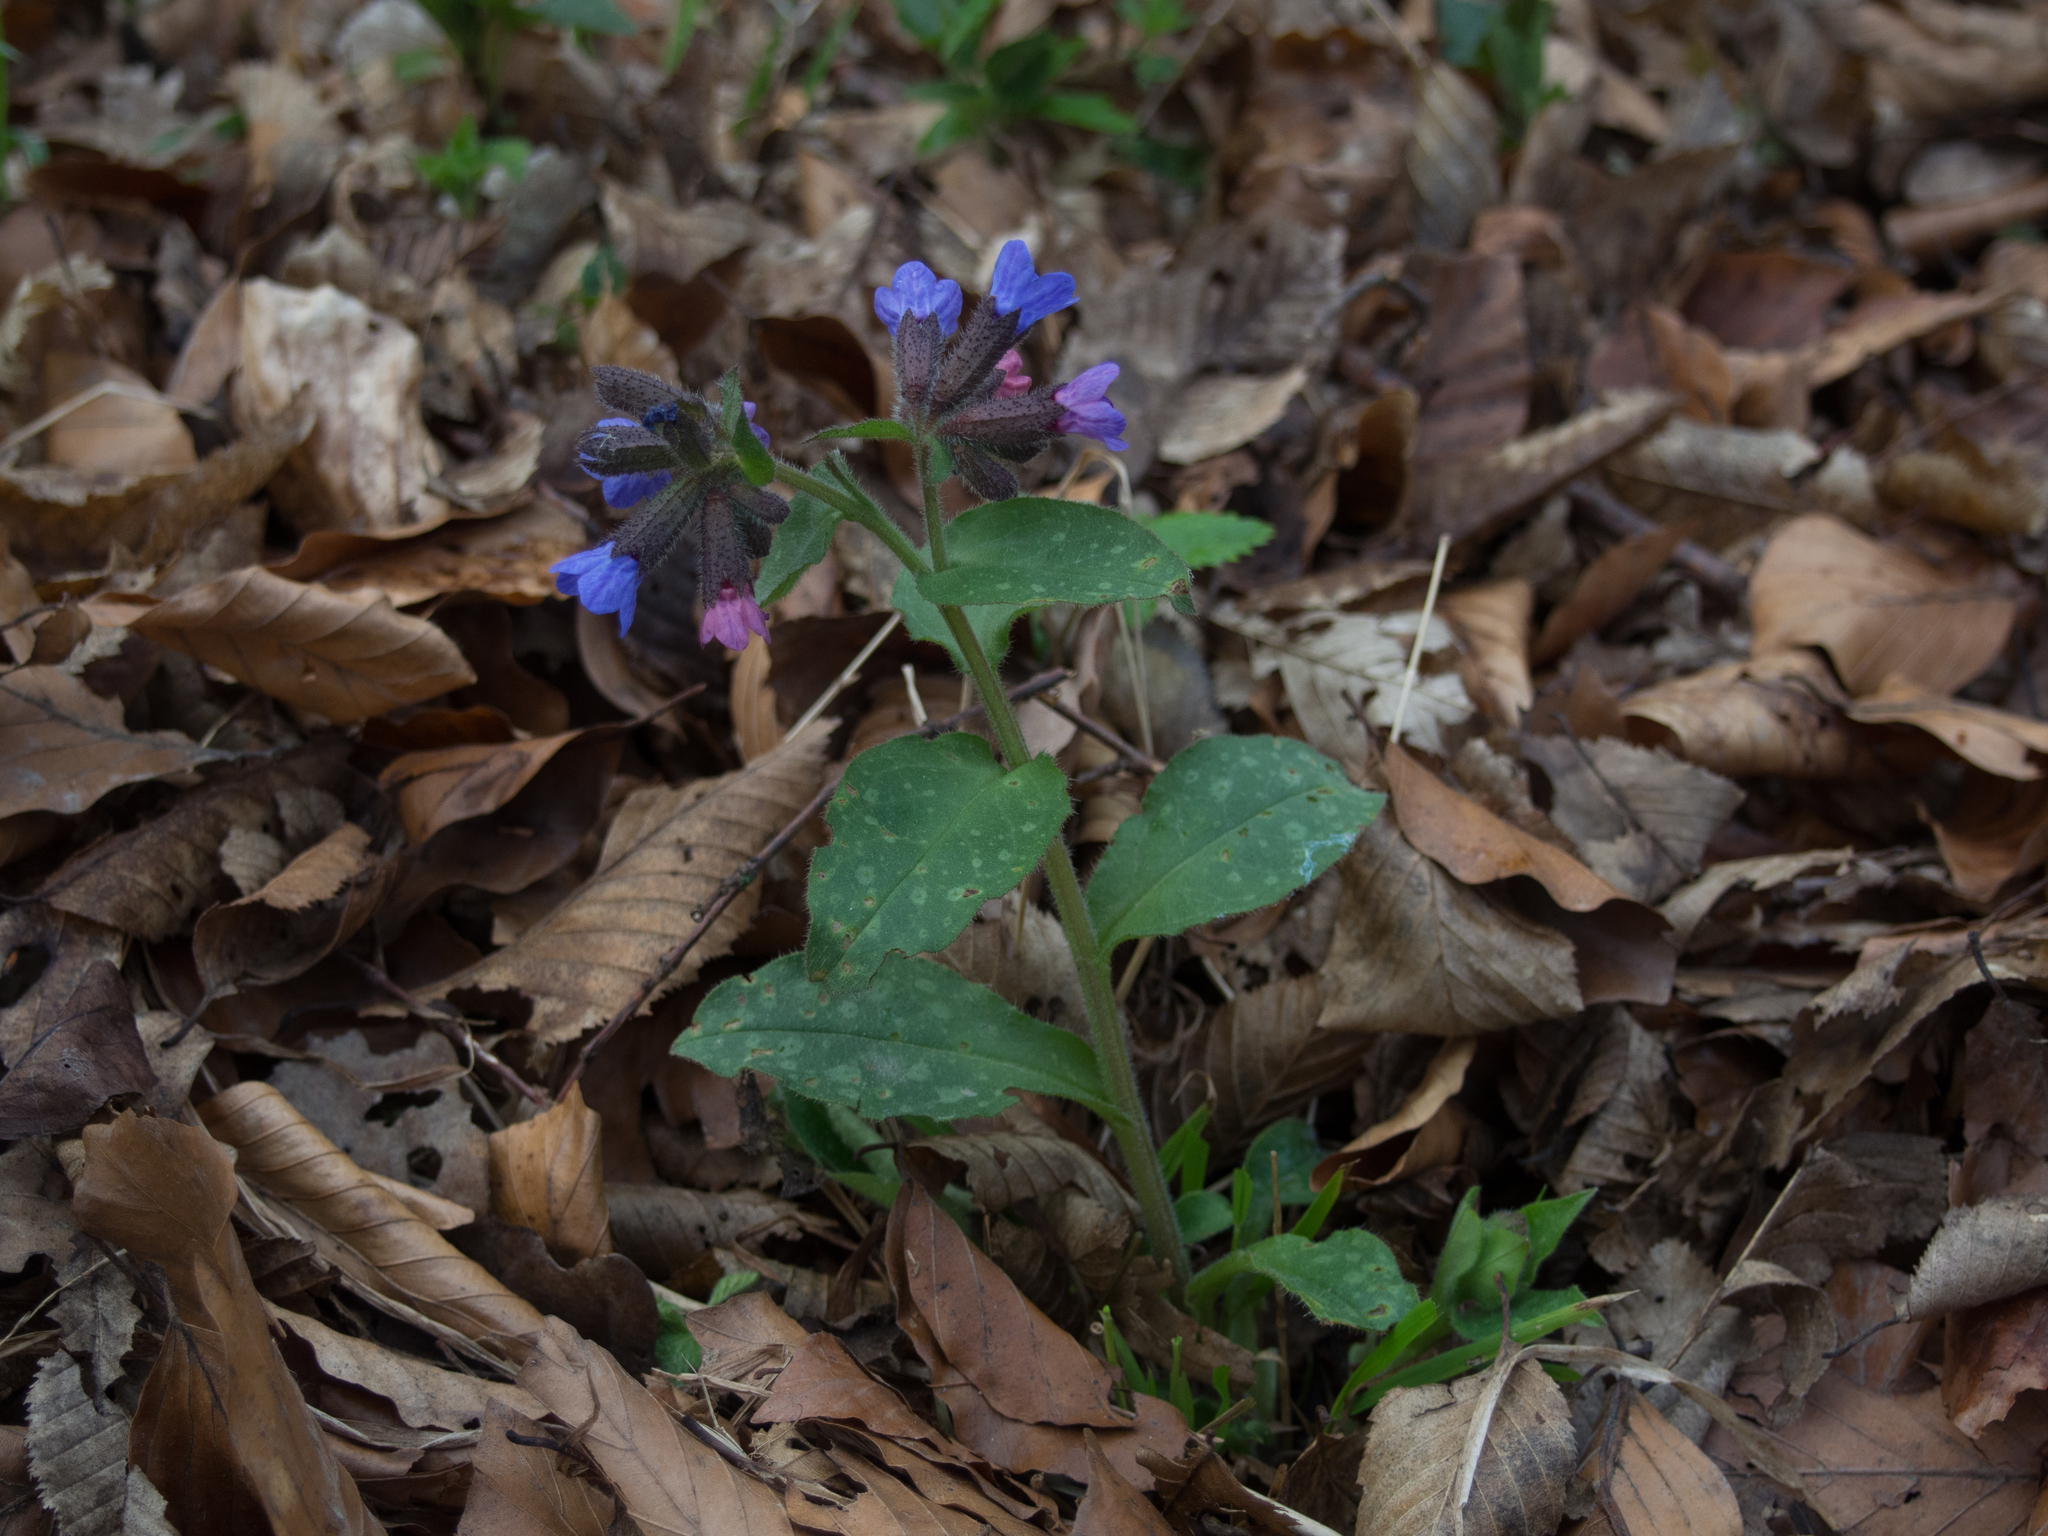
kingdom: Plantae
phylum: Tracheophyta
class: Magnoliopsida
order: Boraginales
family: Boraginaceae
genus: Pulmonaria
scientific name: Pulmonaria officinalis
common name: Lungwort
